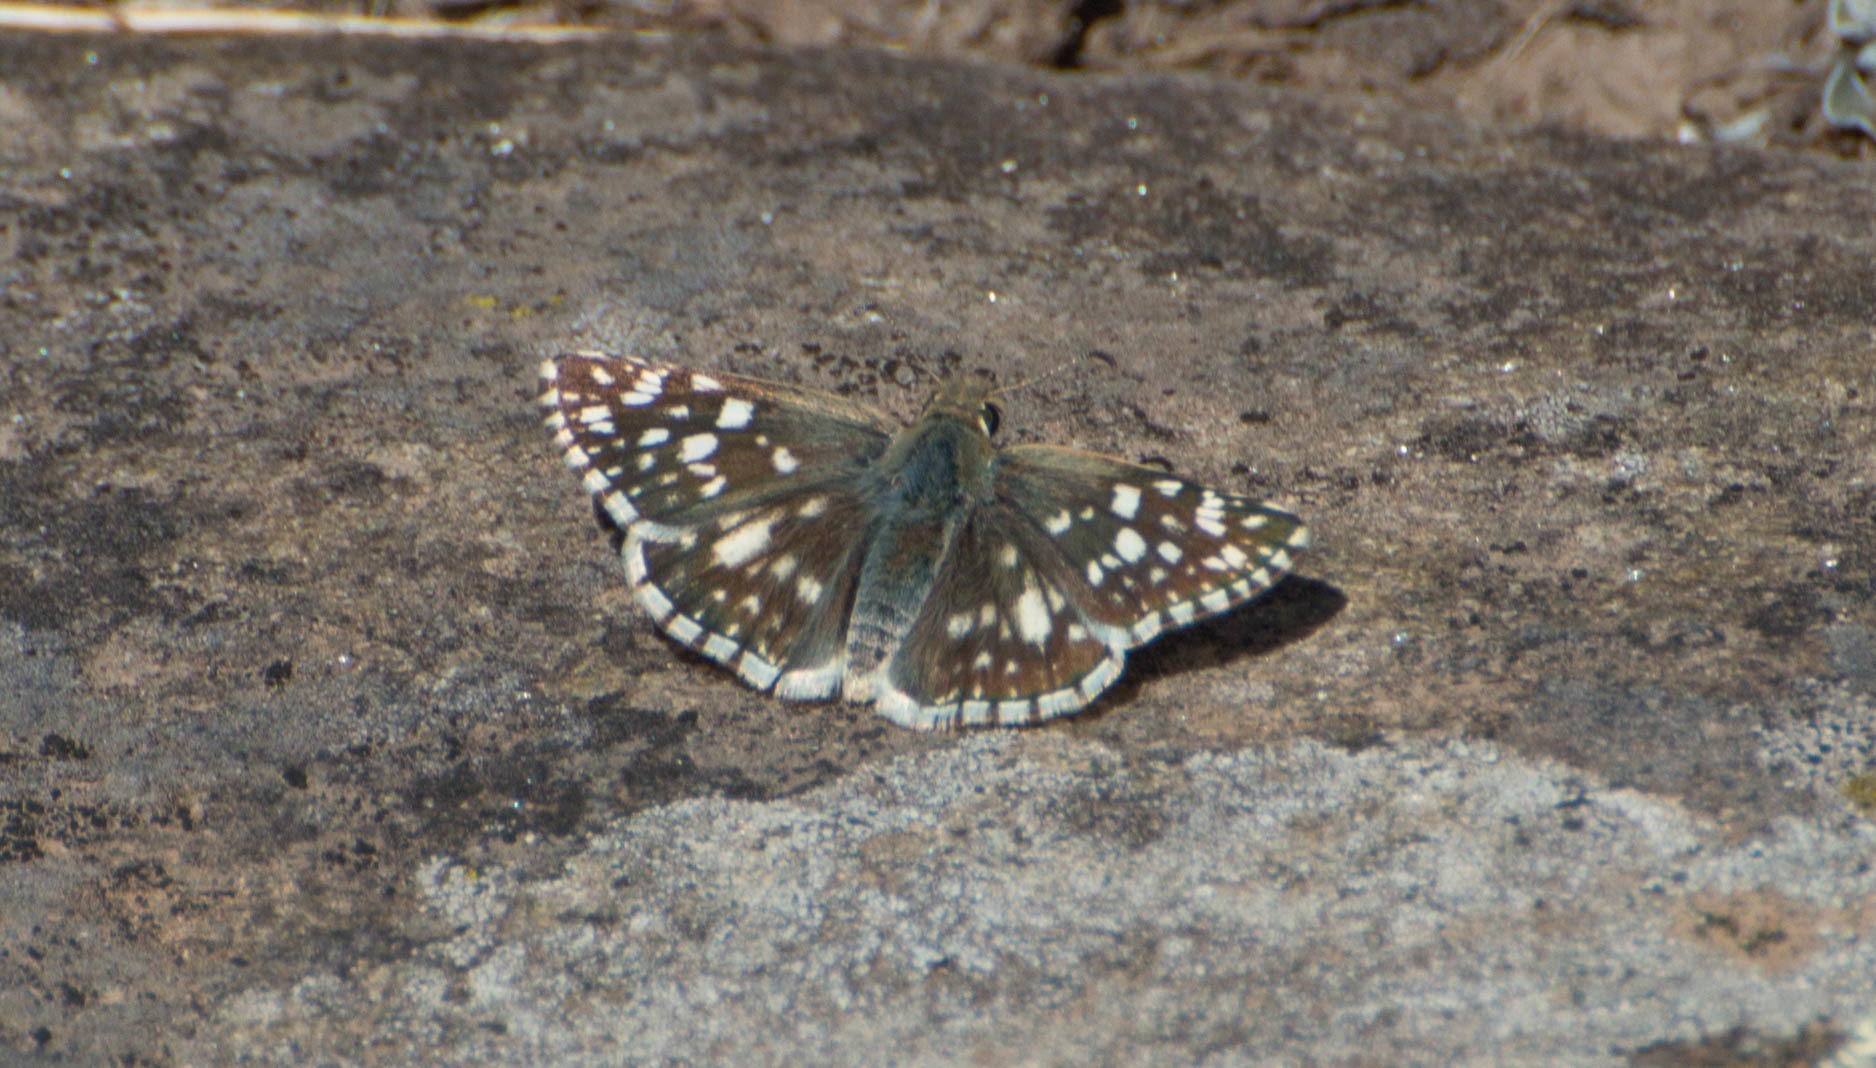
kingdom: Animalia
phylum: Arthropoda
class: Insecta
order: Lepidoptera
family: Hesperiidae
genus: Heliopetes
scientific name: Heliopetes americanus
